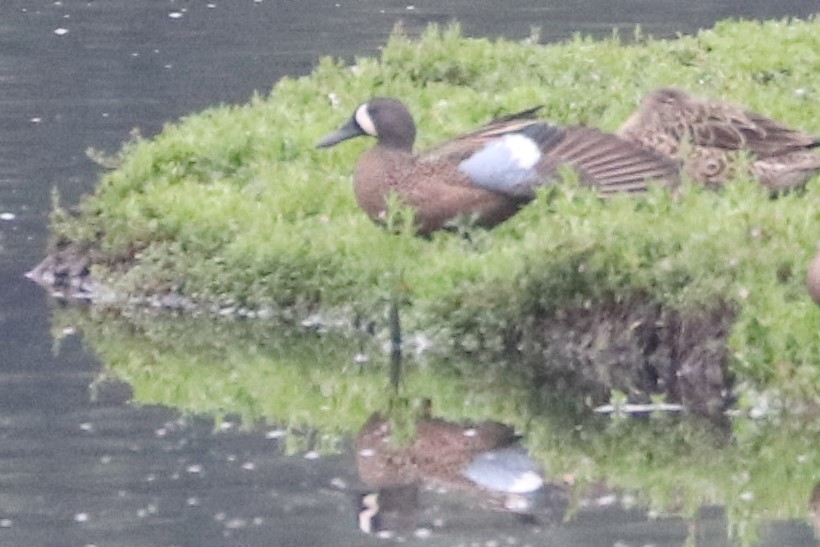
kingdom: Animalia
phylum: Chordata
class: Aves
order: Anseriformes
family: Anatidae
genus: Spatula
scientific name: Spatula discors
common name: Blue-winged teal
